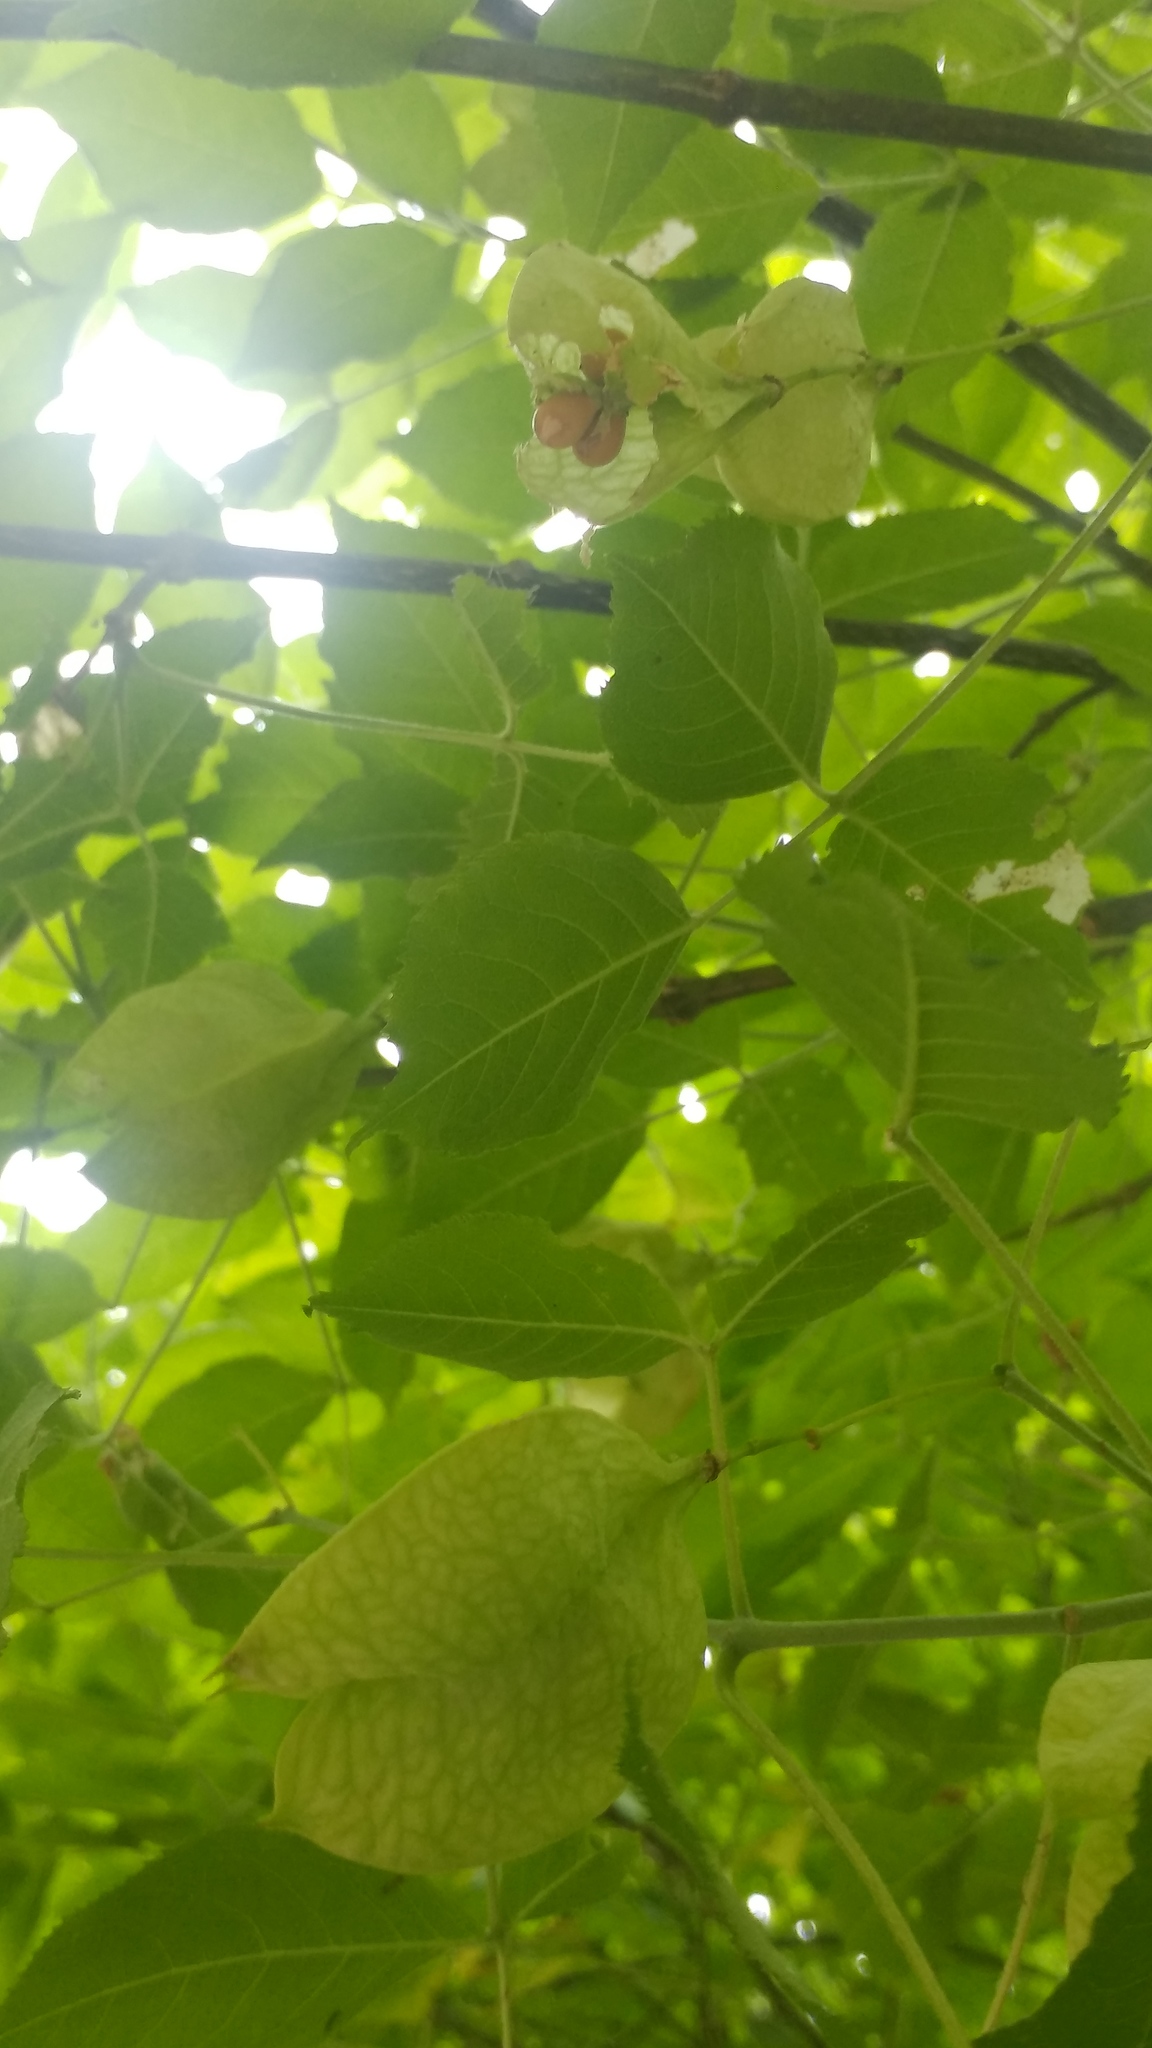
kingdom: Plantae
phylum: Tracheophyta
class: Magnoliopsida
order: Crossosomatales
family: Staphyleaceae
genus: Staphylea
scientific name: Staphylea pringlei
